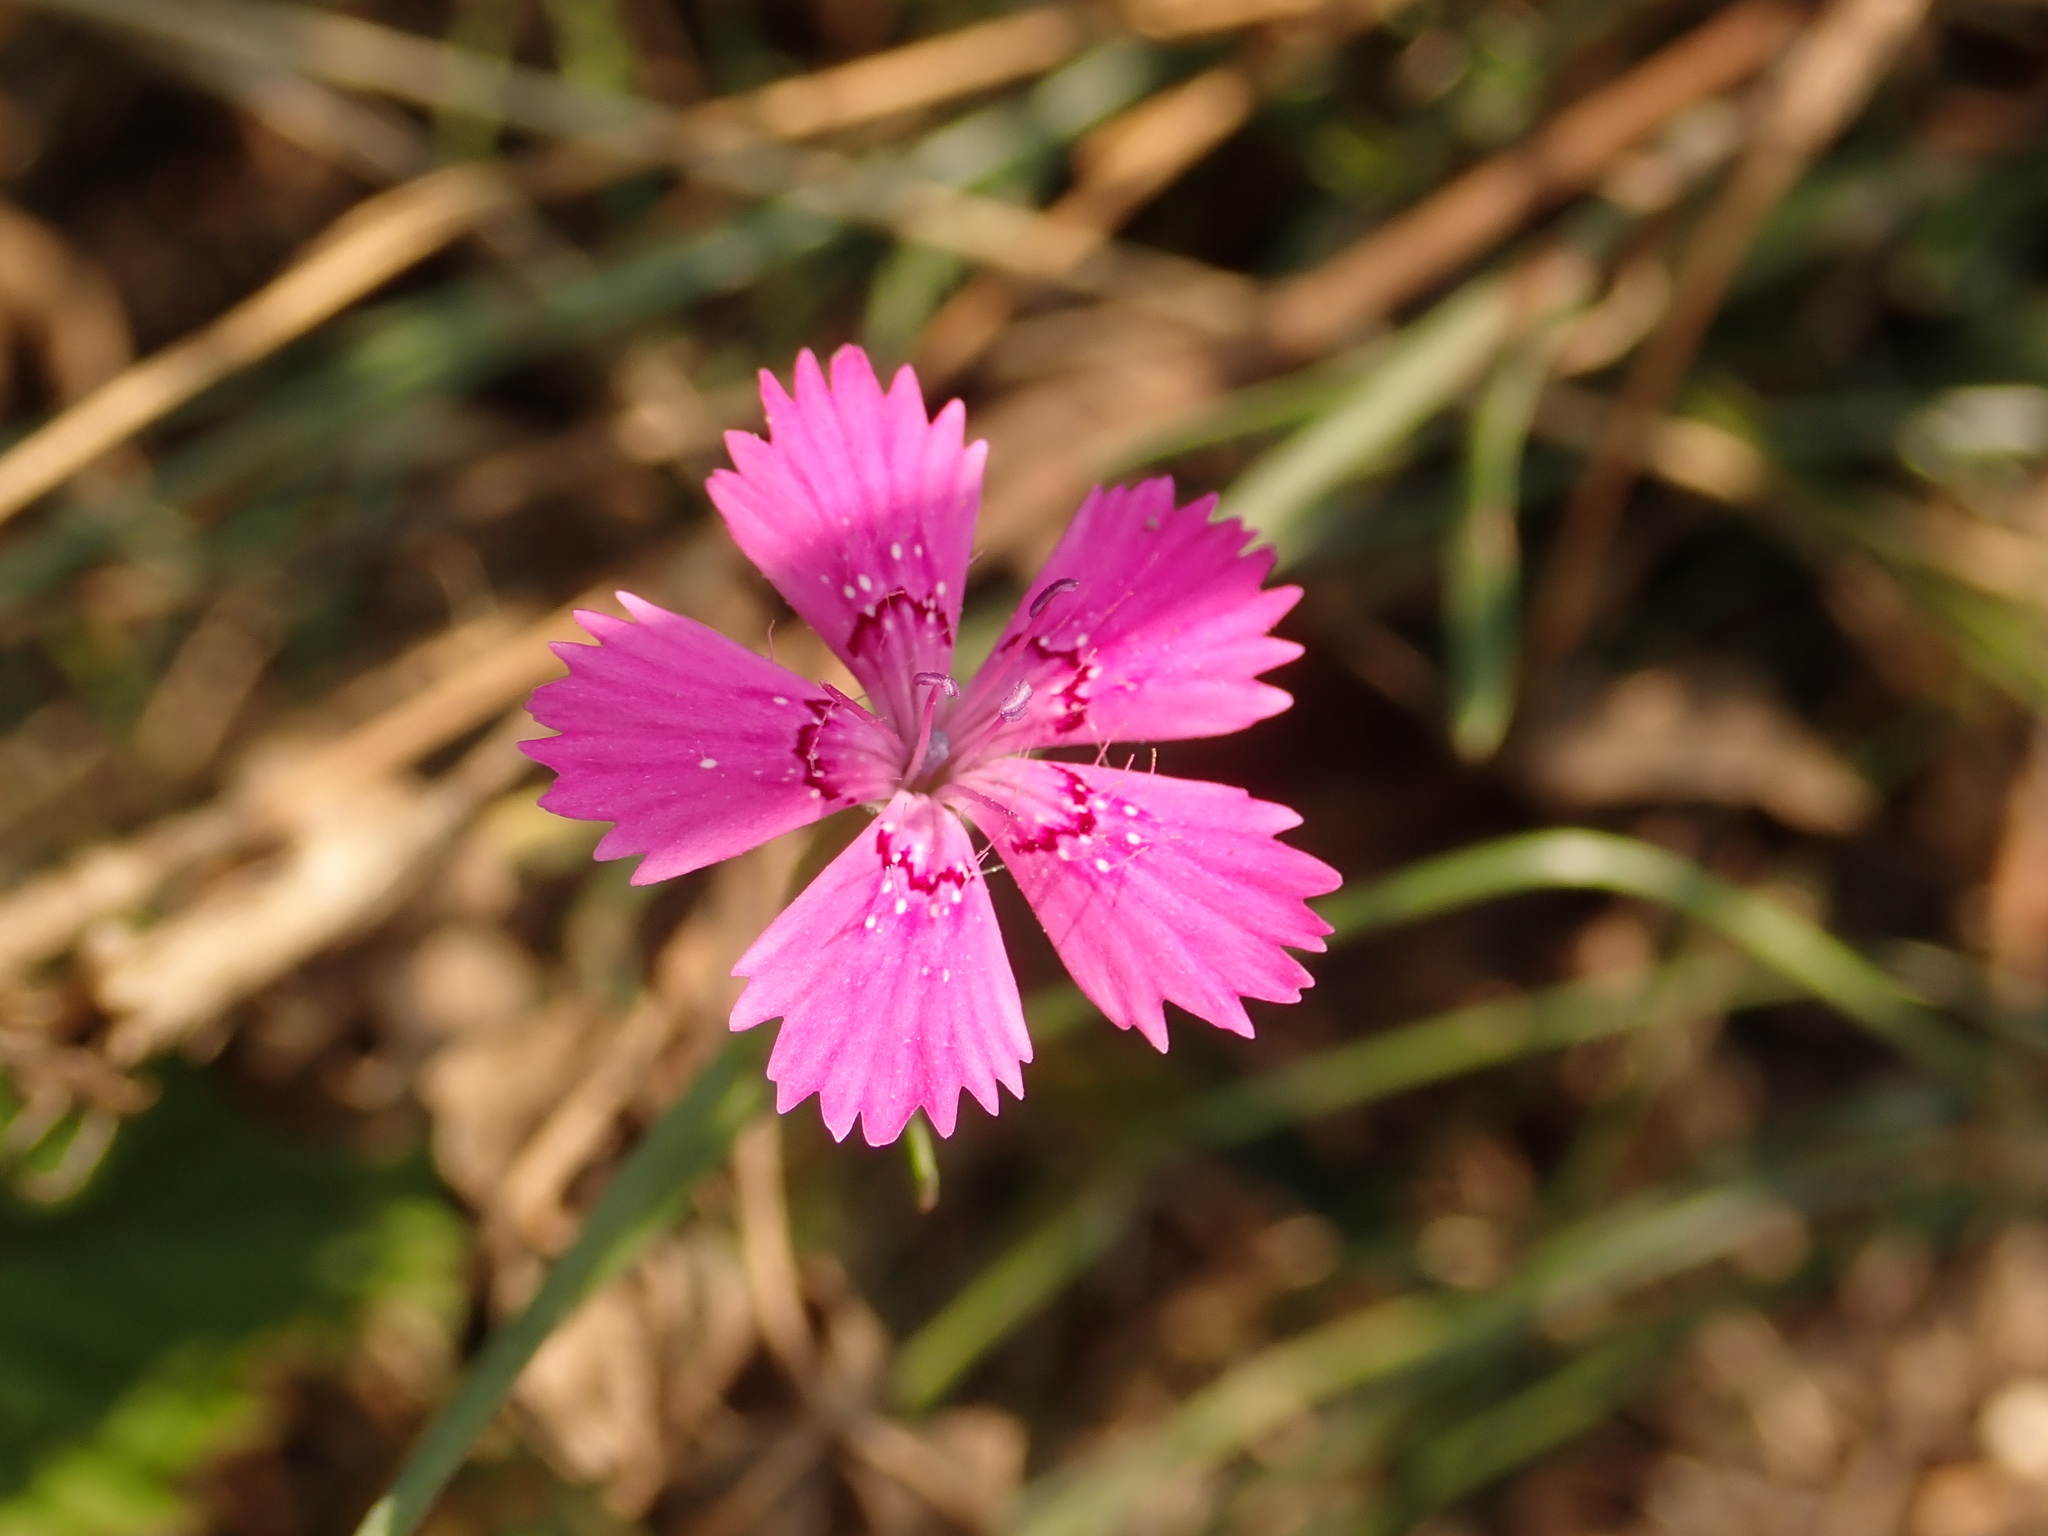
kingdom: Plantae
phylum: Tracheophyta
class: Magnoliopsida
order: Caryophyllales
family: Caryophyllaceae
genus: Dianthus
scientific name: Dianthus deltoides
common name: Maiden pink
